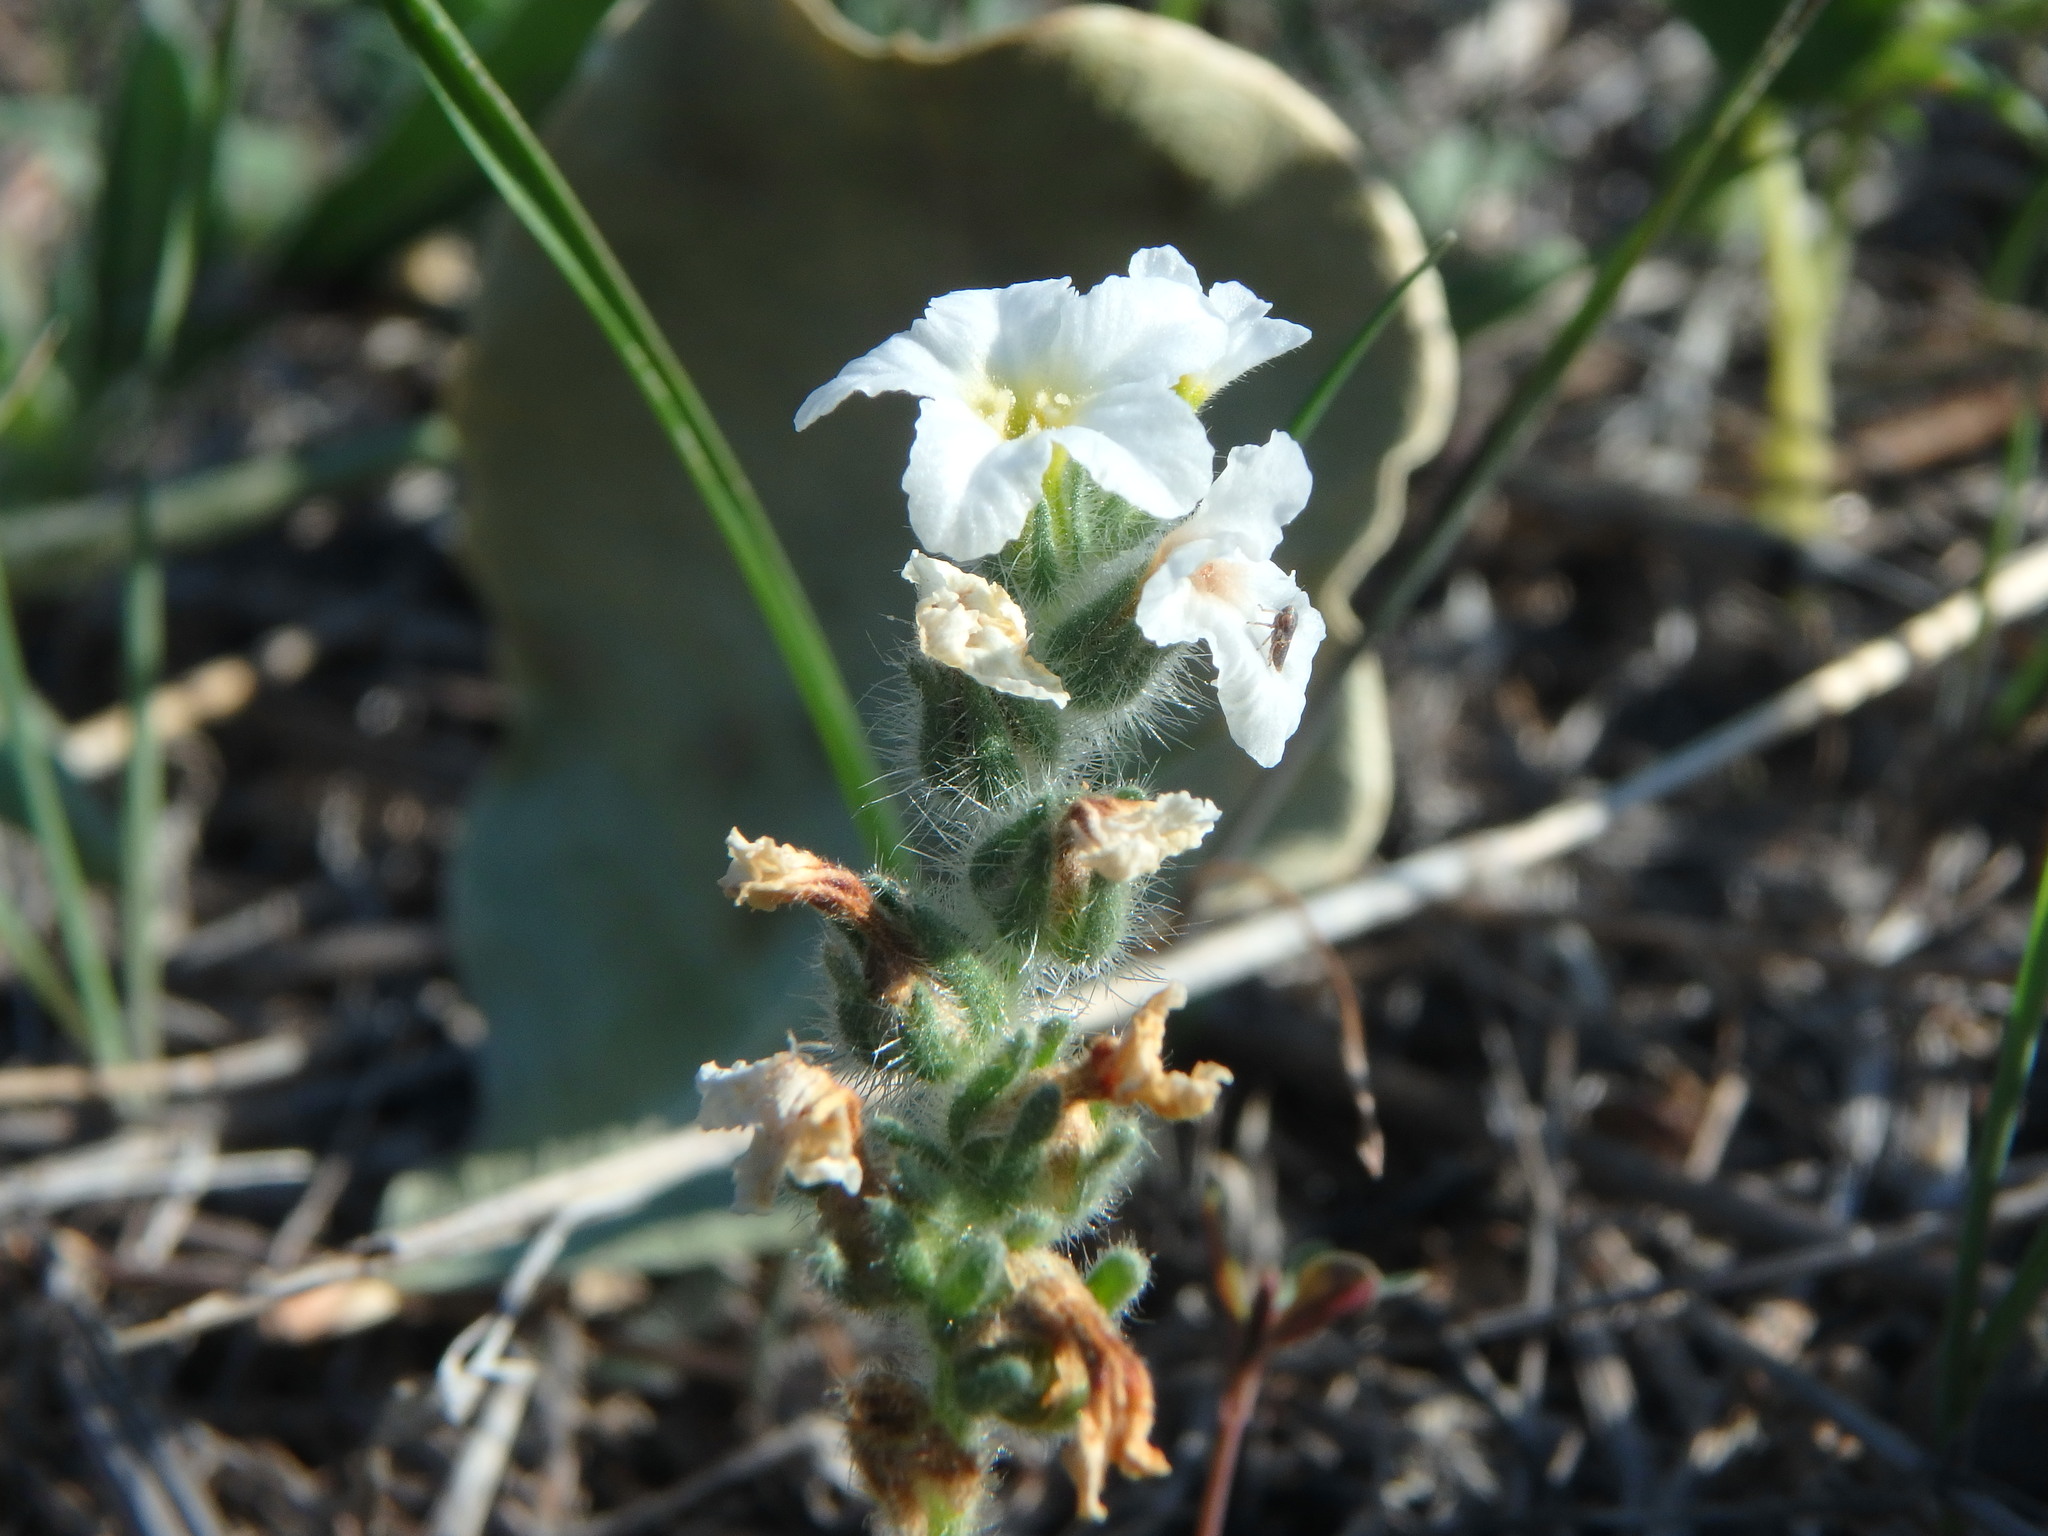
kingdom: Plantae
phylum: Tracheophyta
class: Magnoliopsida
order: Boraginales
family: Heliotropiaceae
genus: Heliotropium
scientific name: Heliotropium hirsutissimum
